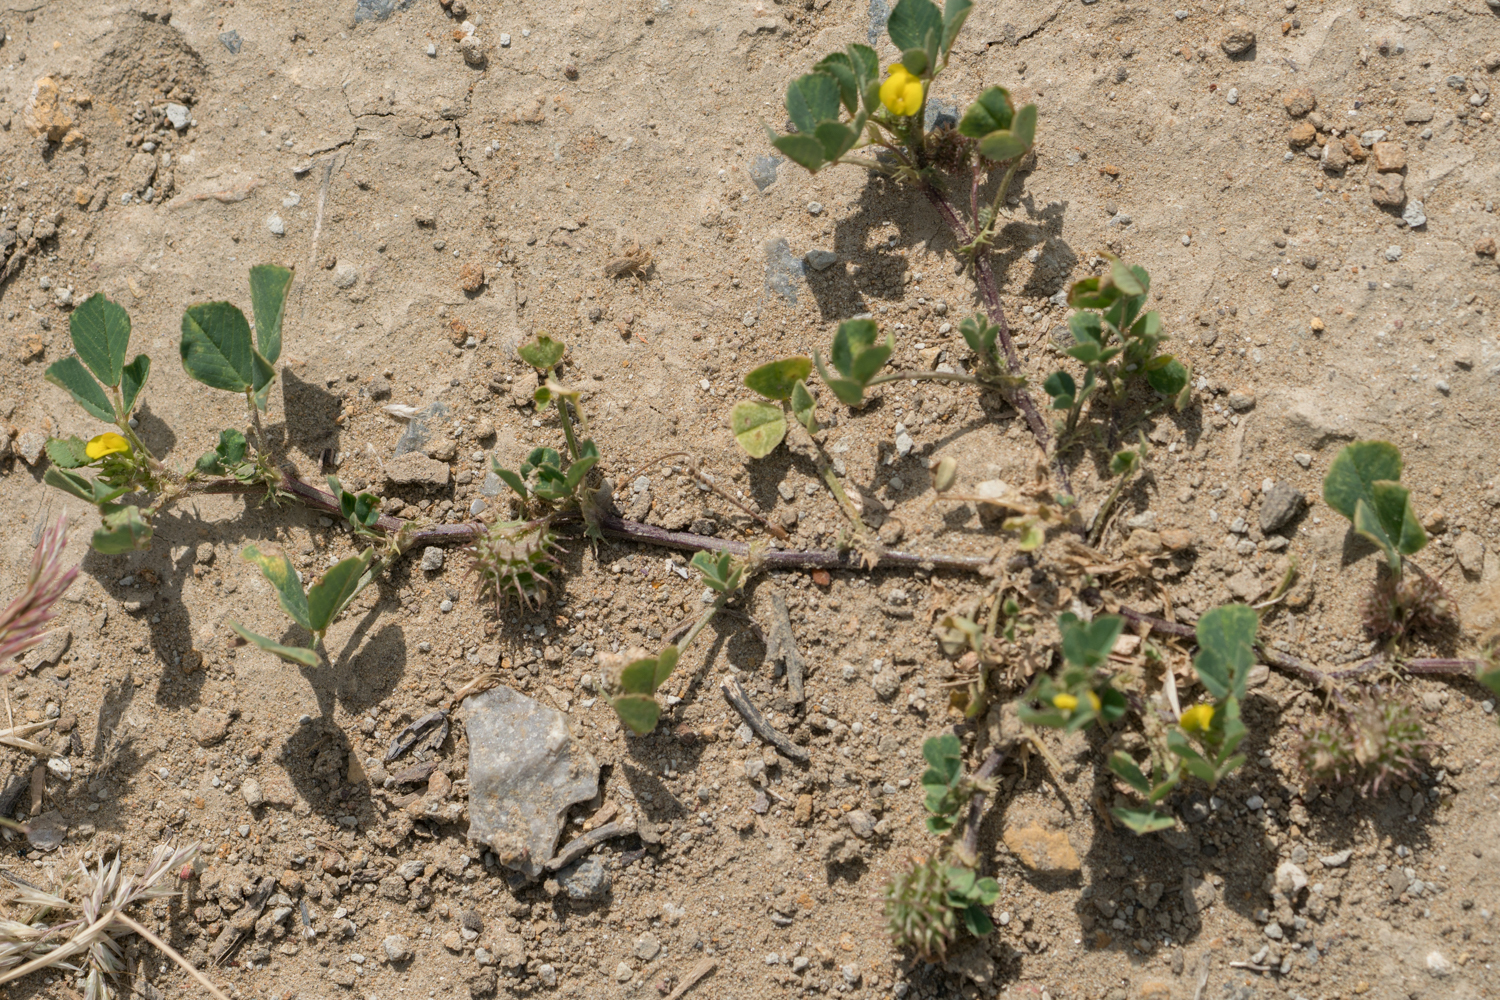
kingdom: Plantae
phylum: Tracheophyta
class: Magnoliopsida
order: Fabales
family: Fabaceae
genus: Medicago
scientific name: Medicago polymorpha
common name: Burclover
